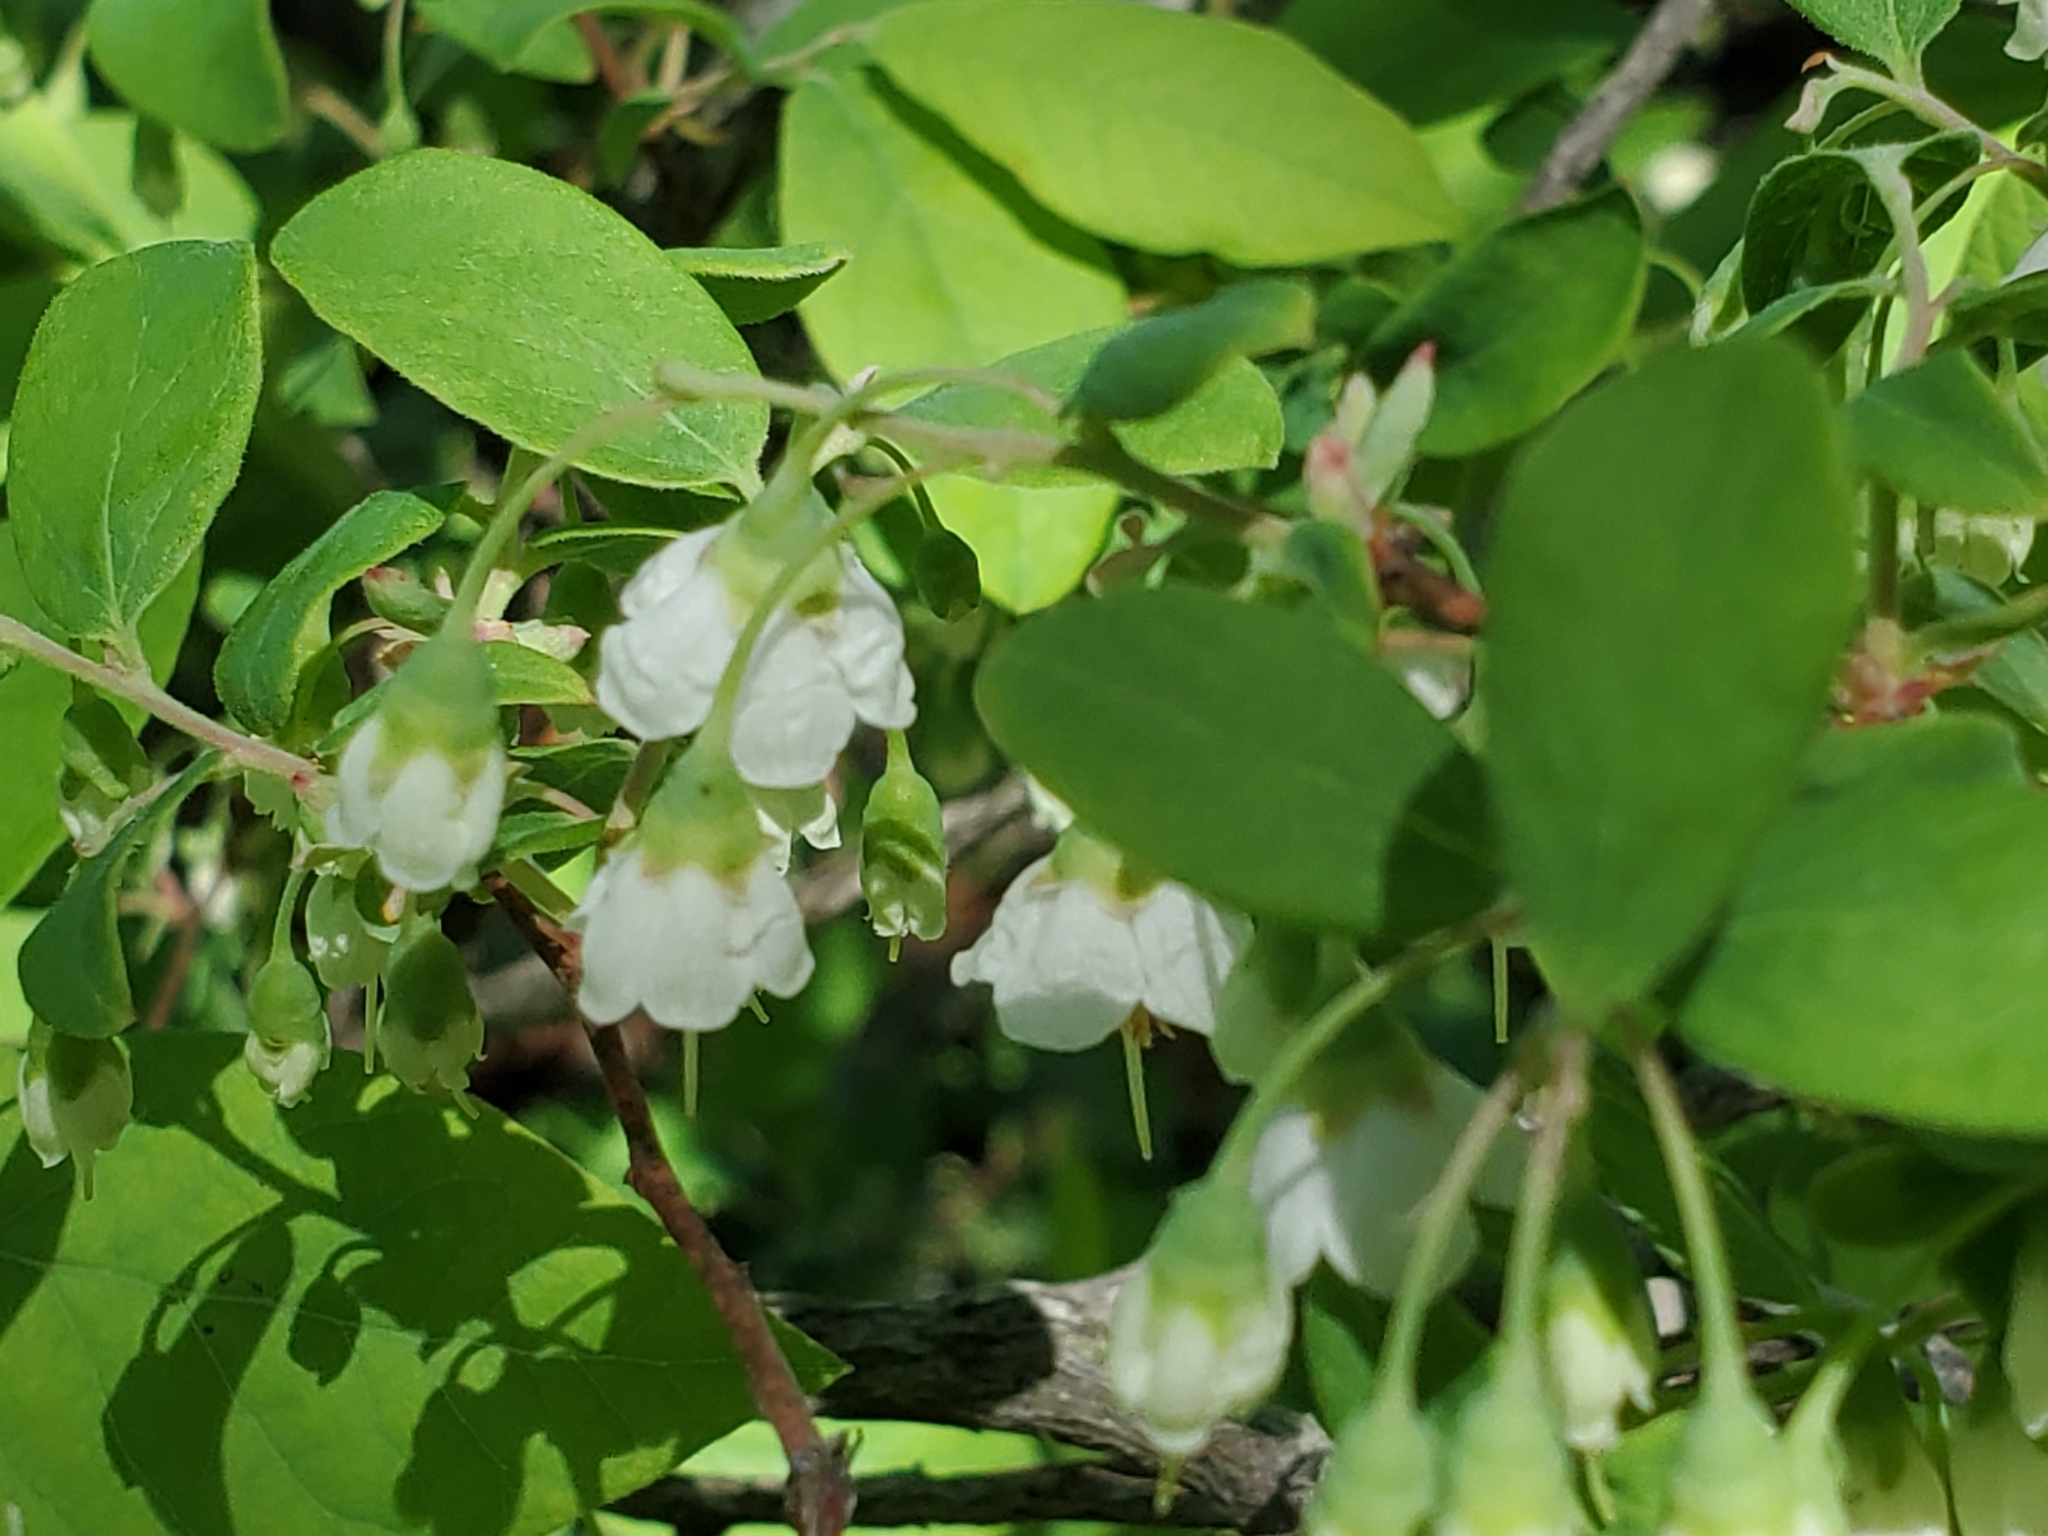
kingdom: Plantae
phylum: Tracheophyta
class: Magnoliopsida
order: Ericales
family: Ericaceae
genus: Vaccinium
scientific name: Vaccinium stamineum
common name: Deerberry
